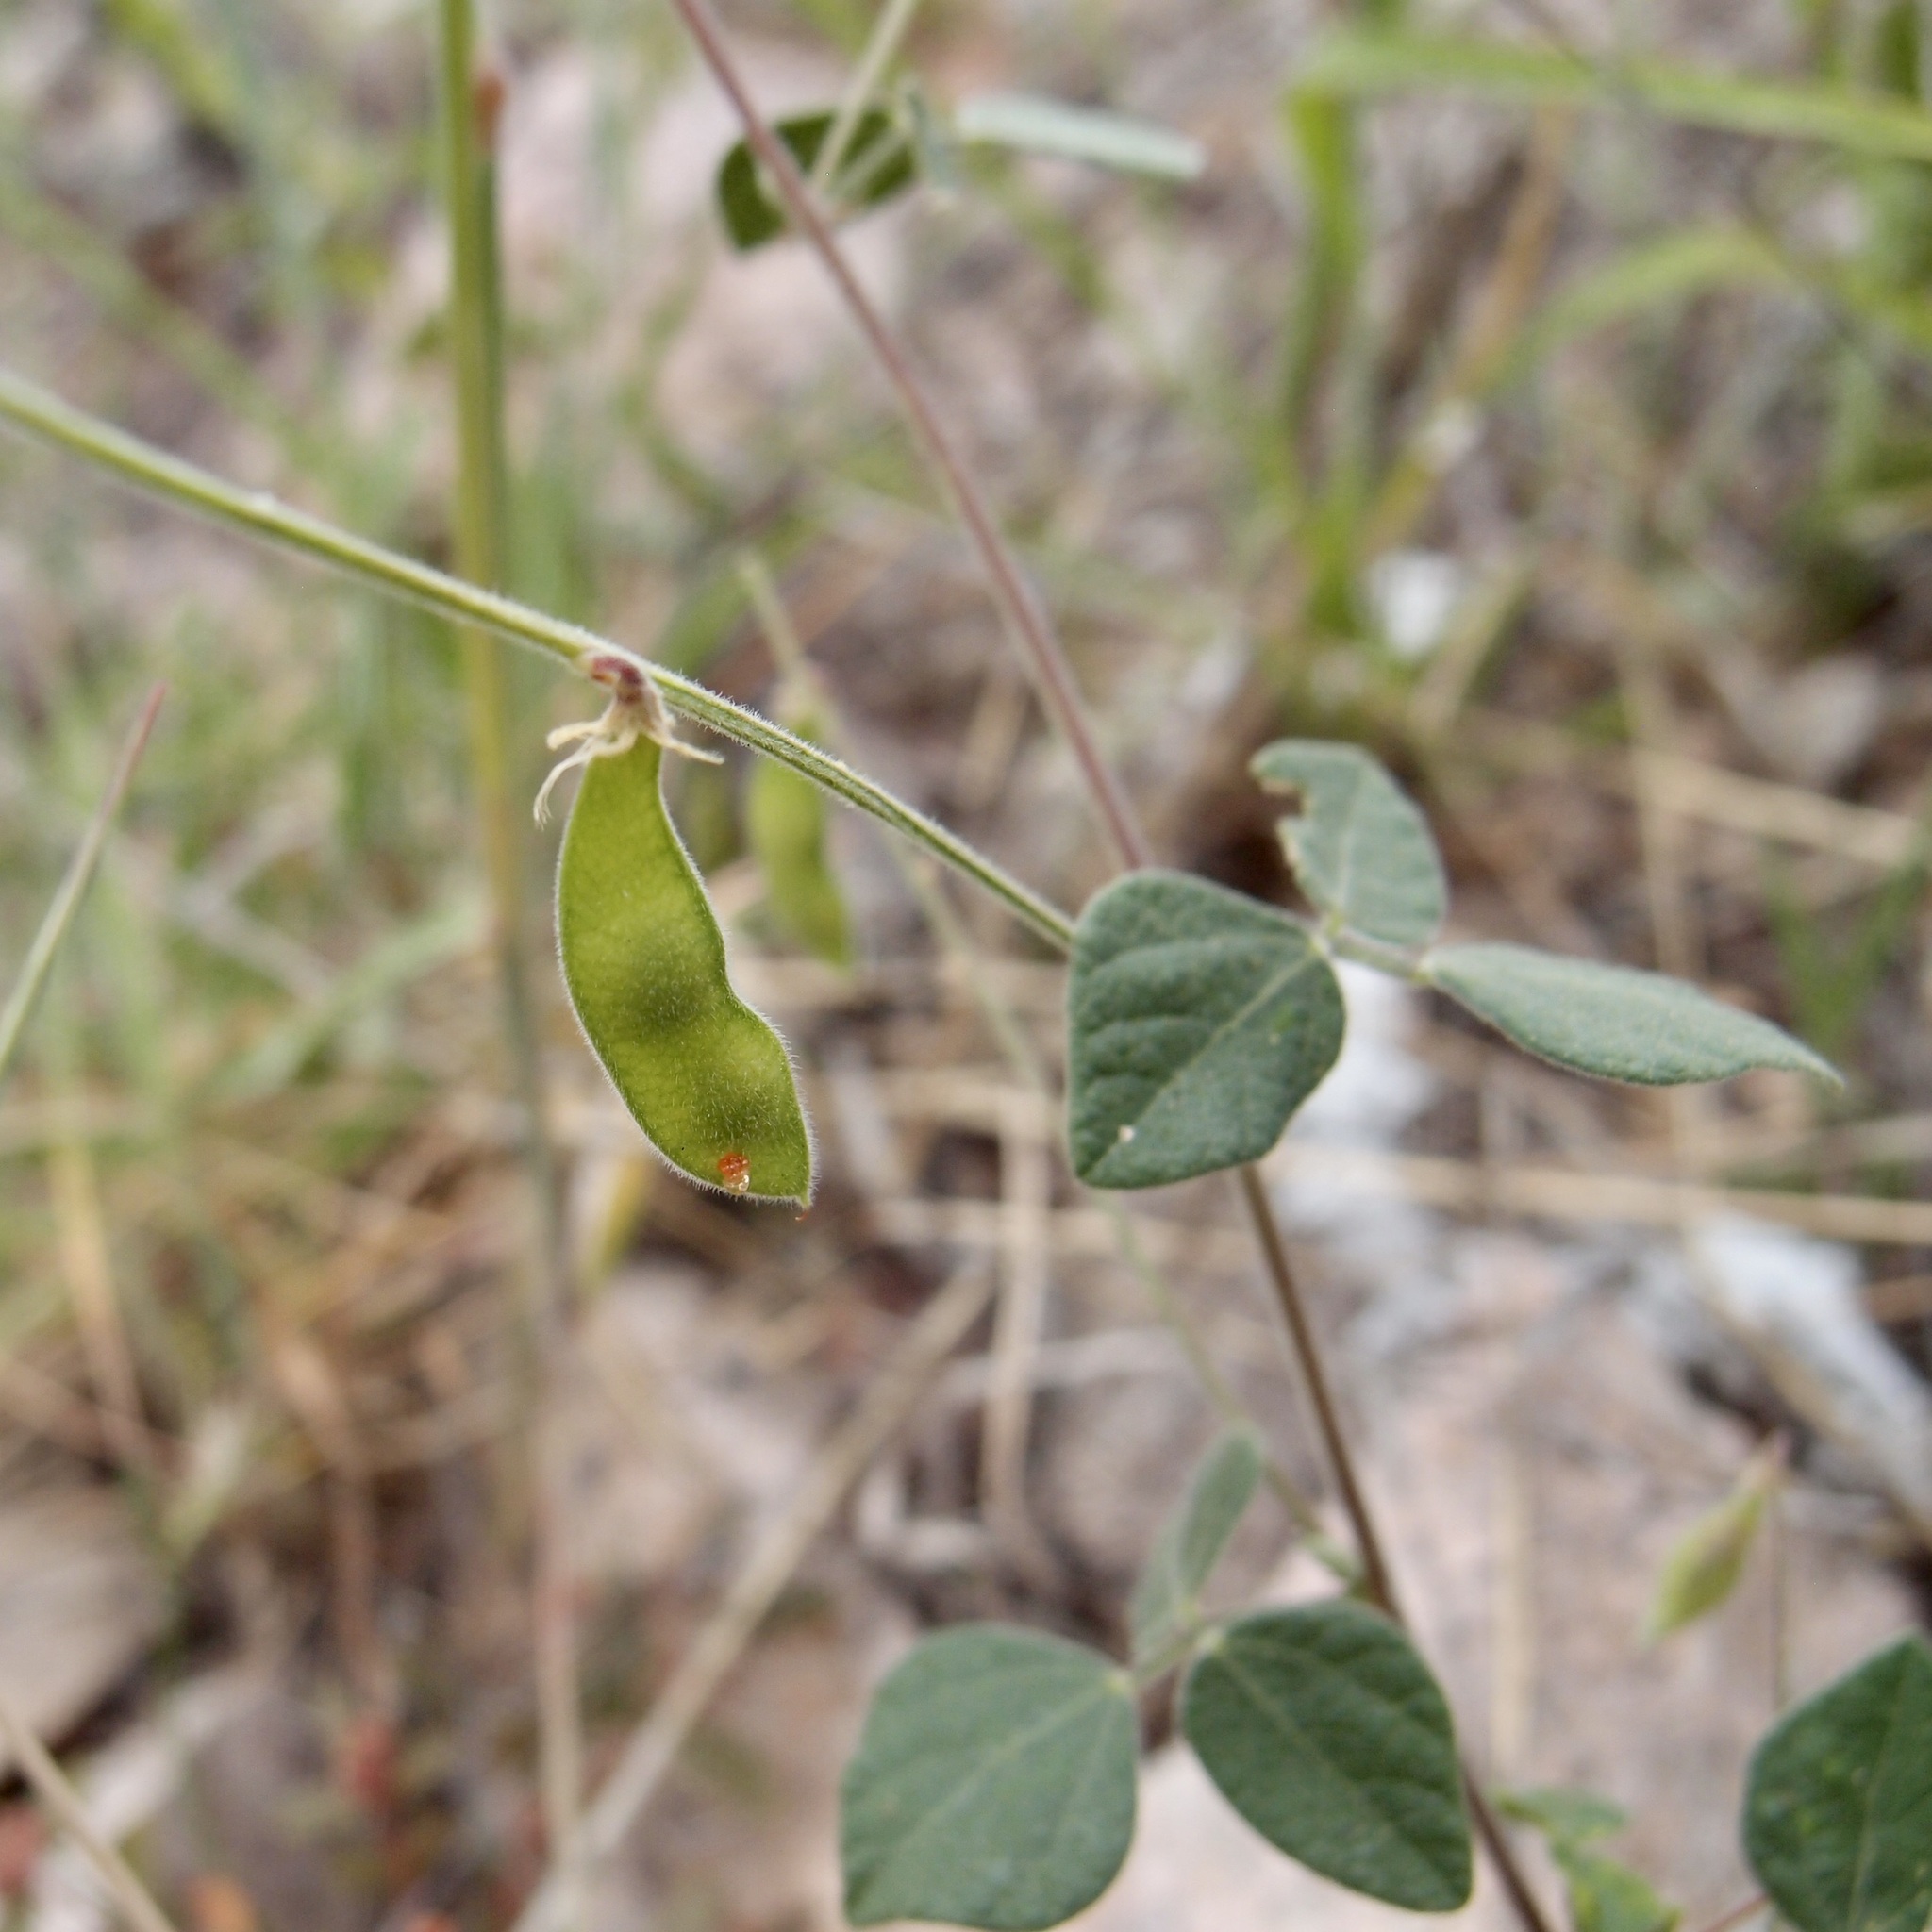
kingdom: Plantae
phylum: Tracheophyta
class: Magnoliopsida
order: Fabales
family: Fabaceae
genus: Rhynchosia
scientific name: Rhynchosia minima
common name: Least snoutbean
